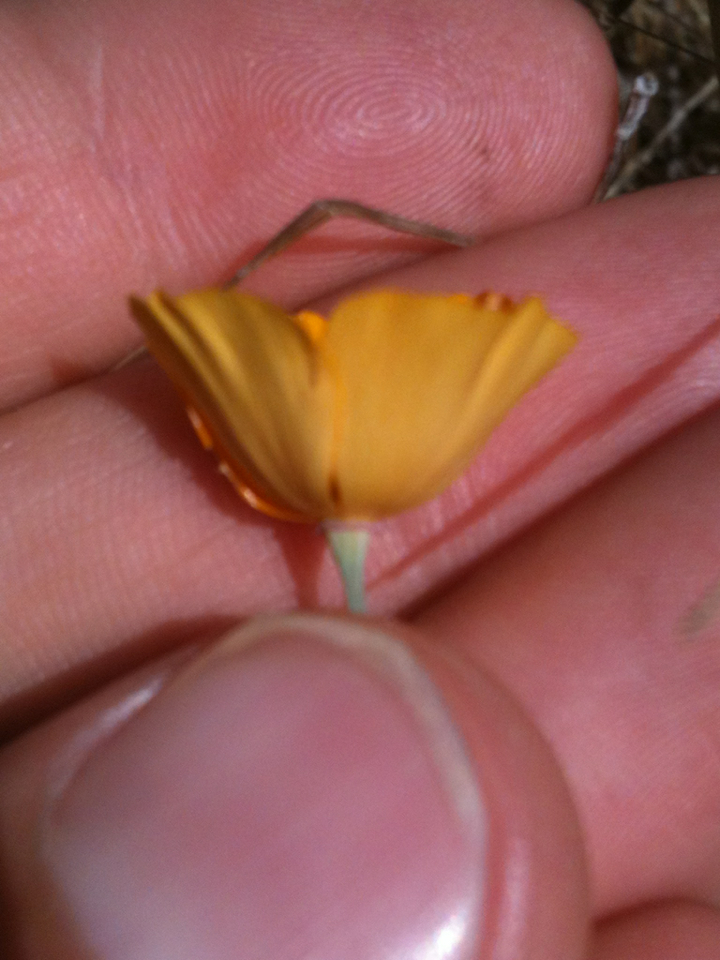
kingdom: Plantae
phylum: Tracheophyta
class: Magnoliopsida
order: Ranunculales
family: Papaveraceae
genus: Eschscholzia
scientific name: Eschscholzia californica
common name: California poppy
